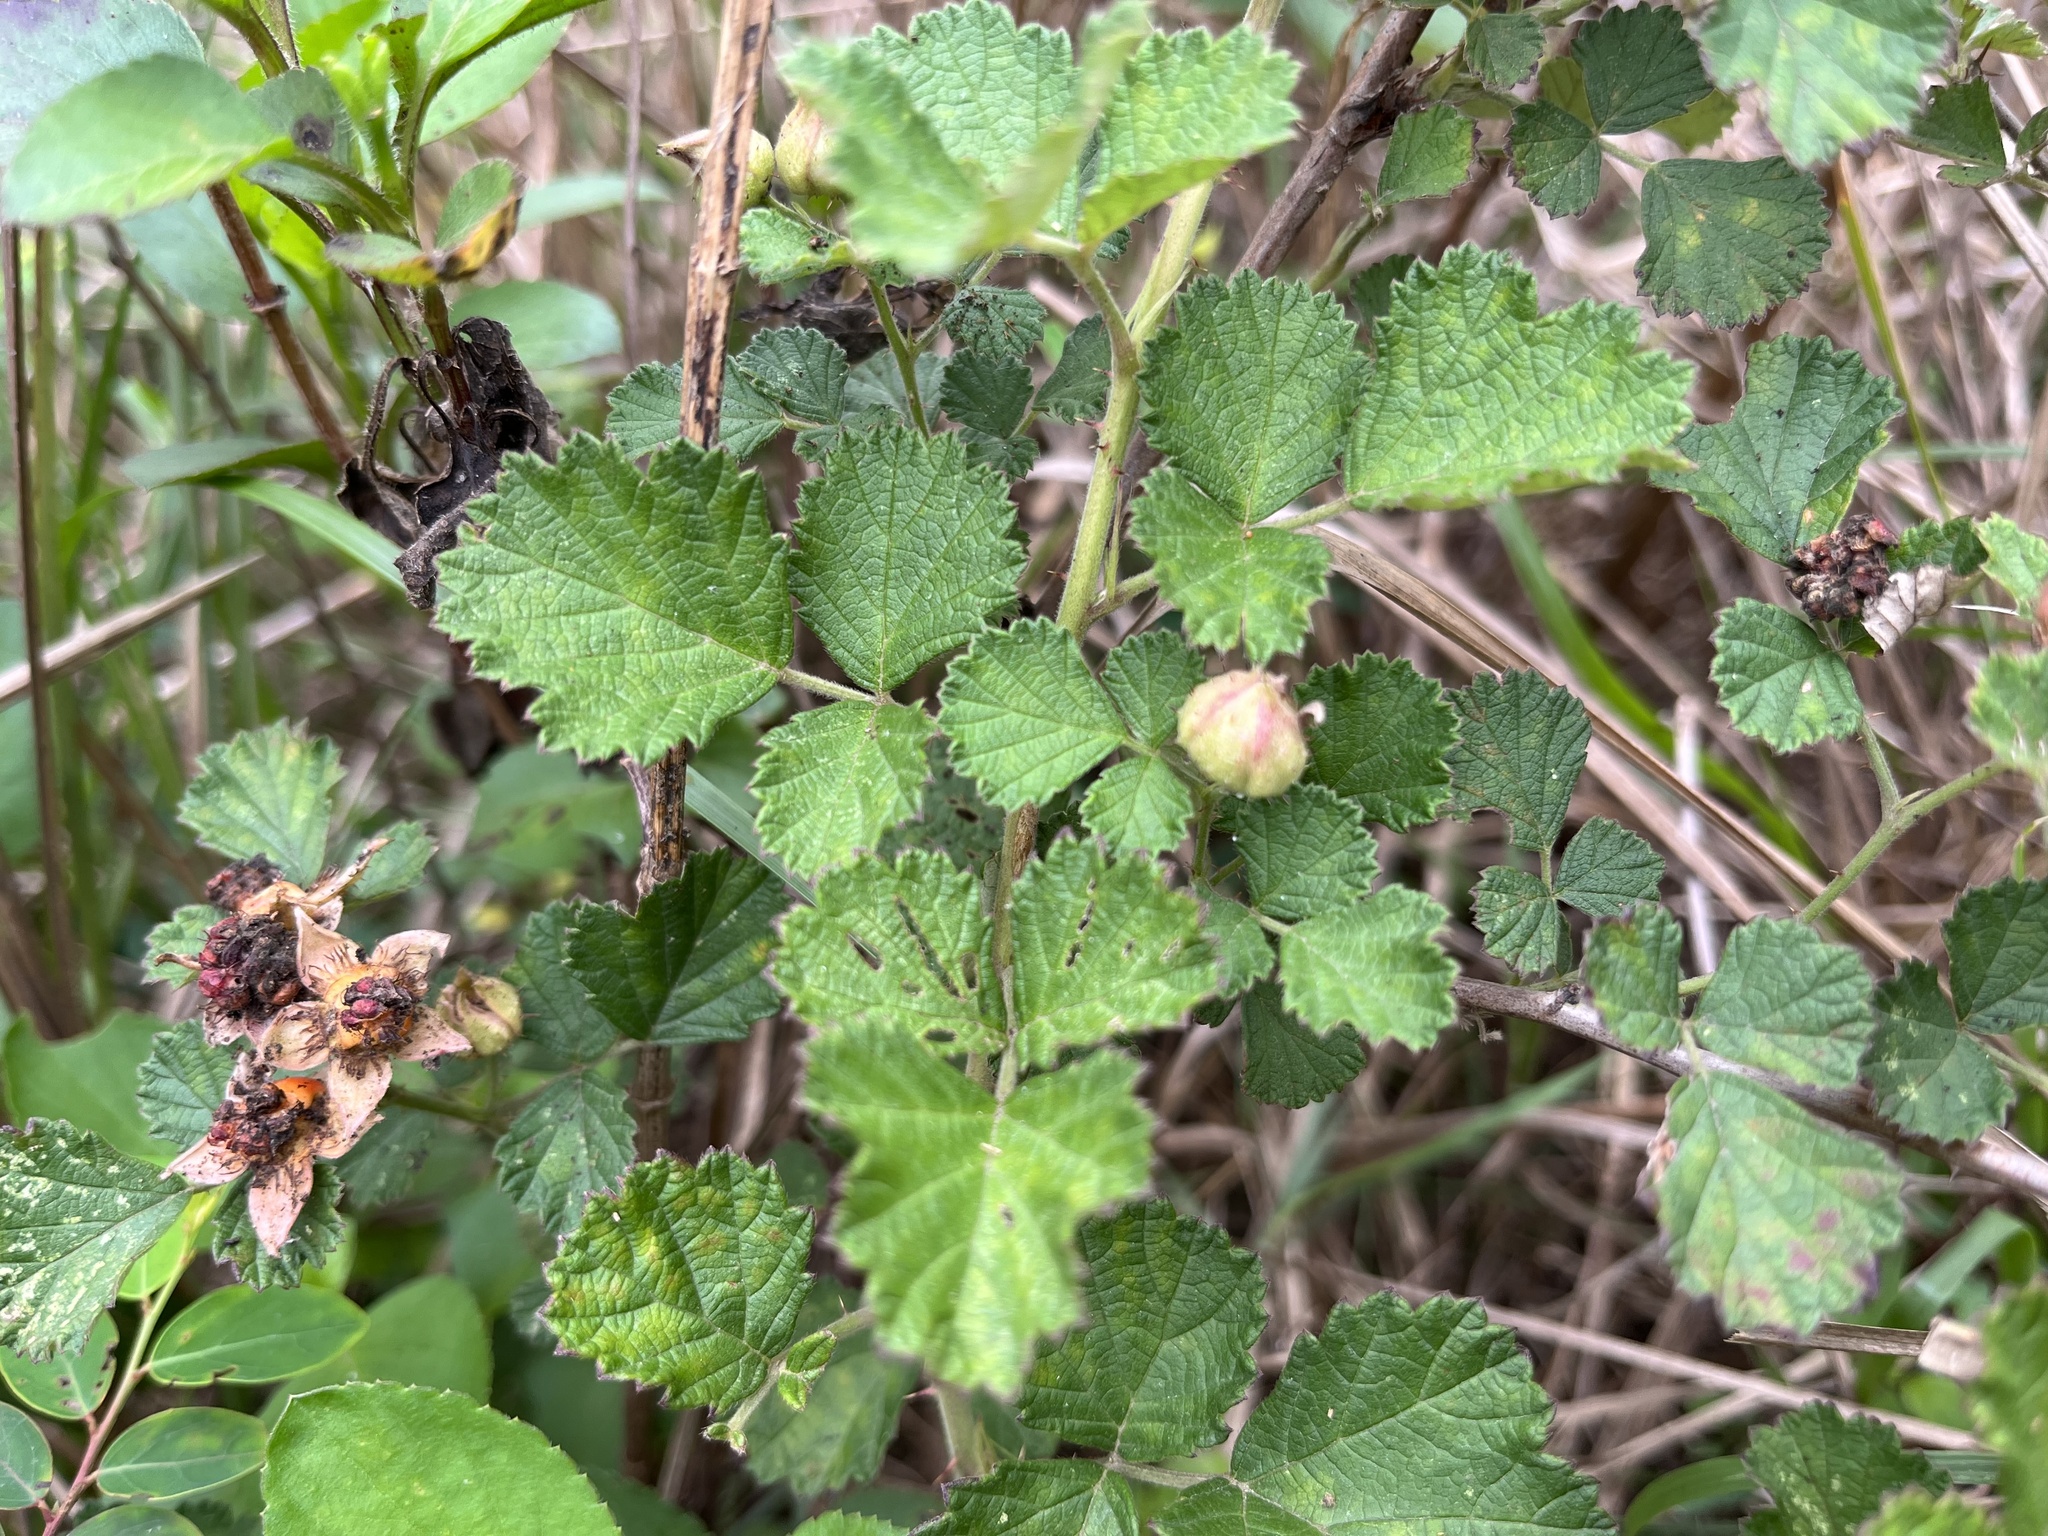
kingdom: Plantae
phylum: Tracheophyta
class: Magnoliopsida
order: Rosales
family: Rosaceae
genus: Rubus
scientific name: Rubus parvifolius
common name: Threeleaf blackberry
